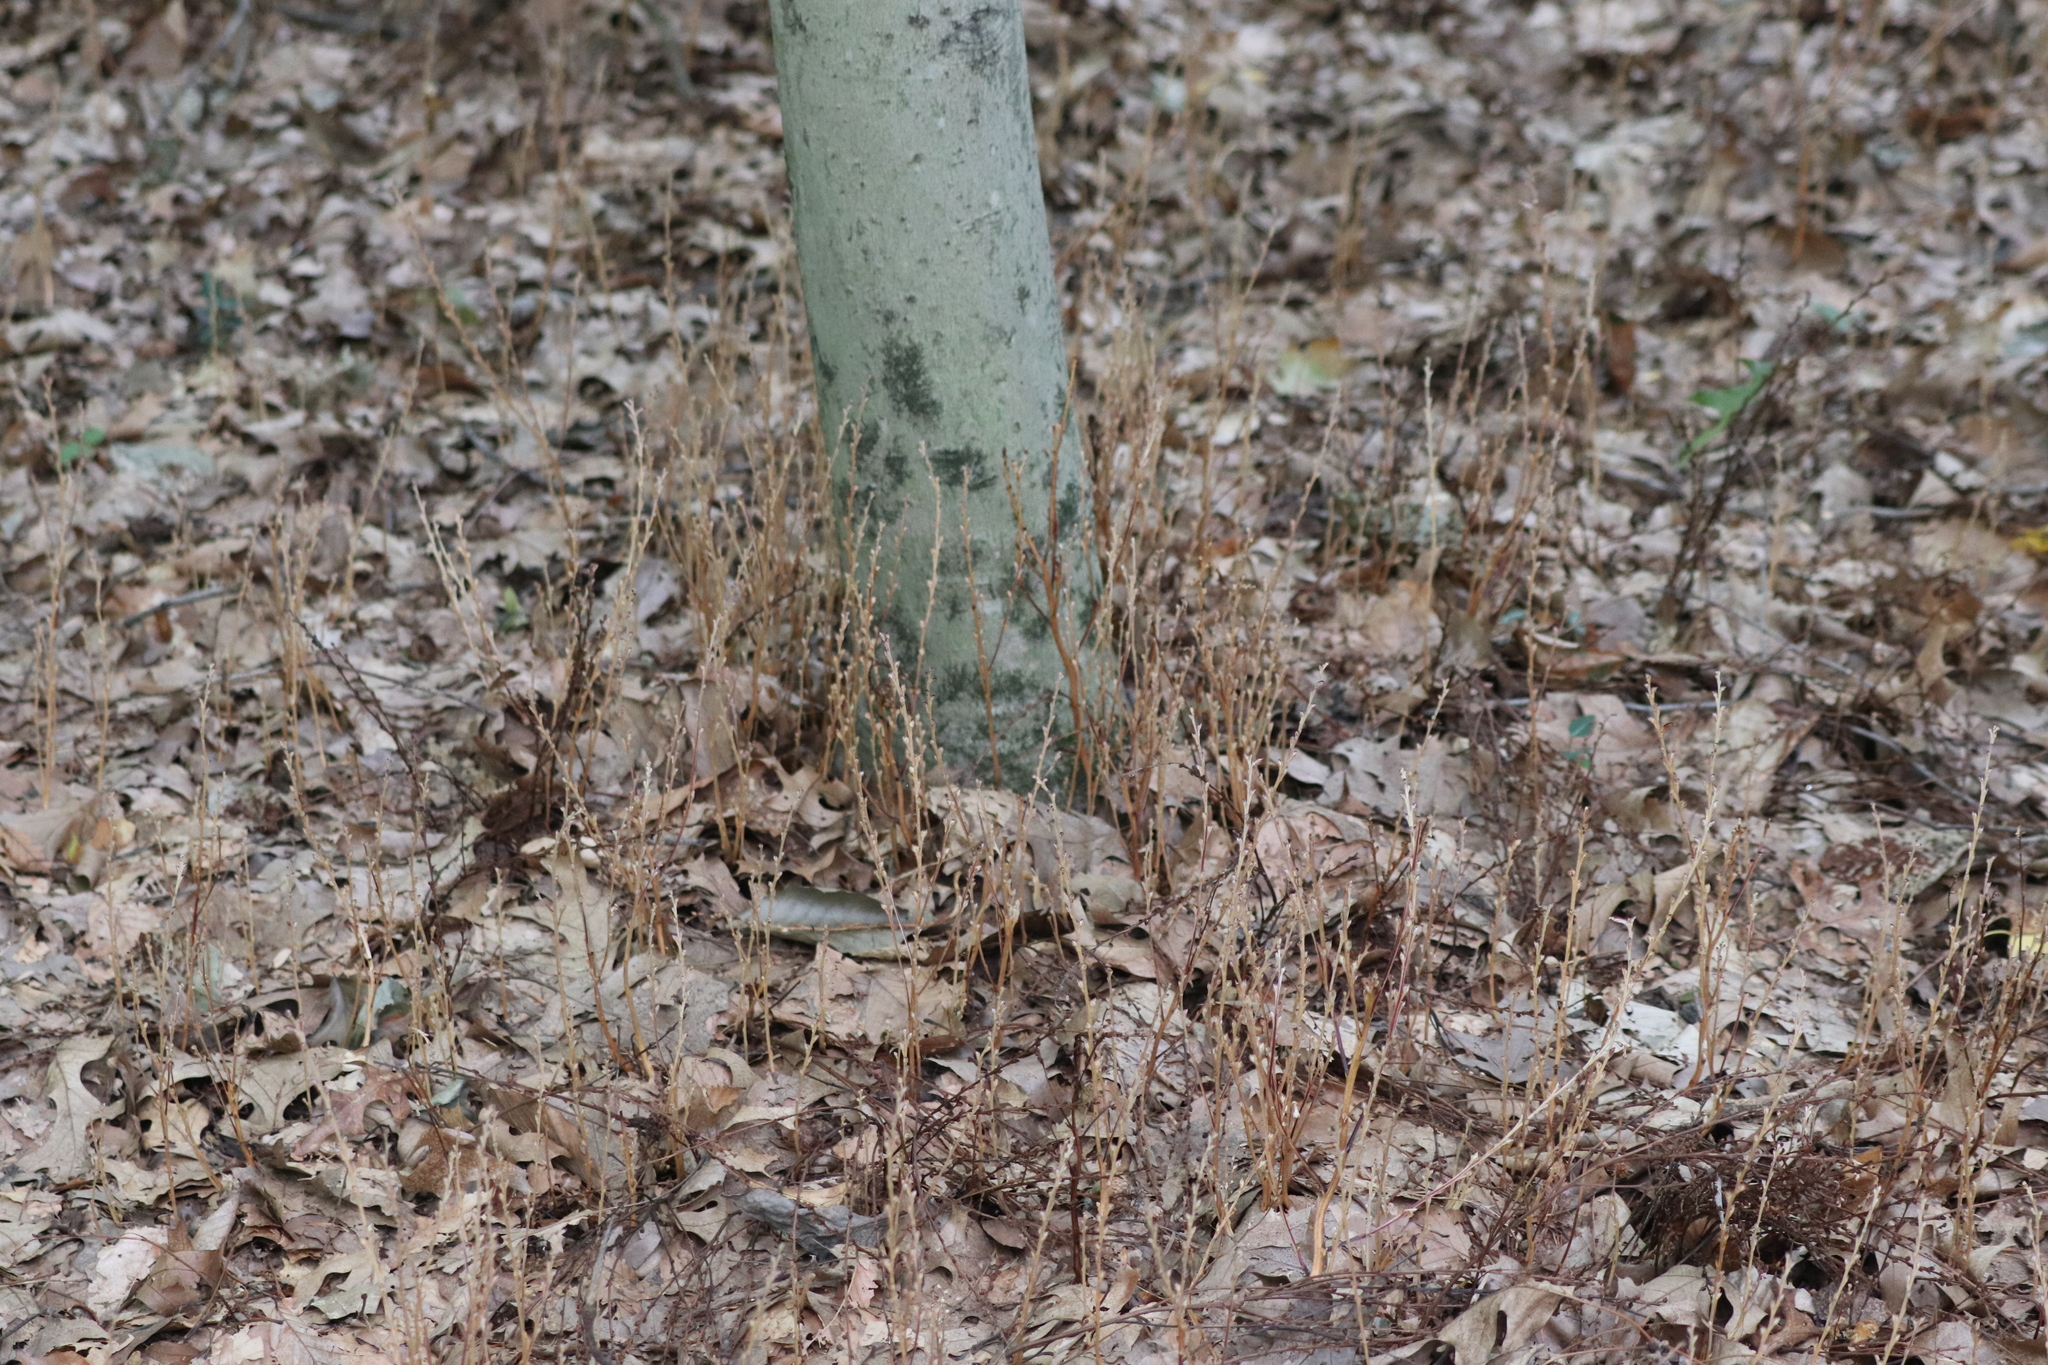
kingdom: Plantae
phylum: Tracheophyta
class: Magnoliopsida
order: Lamiales
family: Orobanchaceae
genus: Epifagus
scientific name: Epifagus virginiana
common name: Beechdrops
